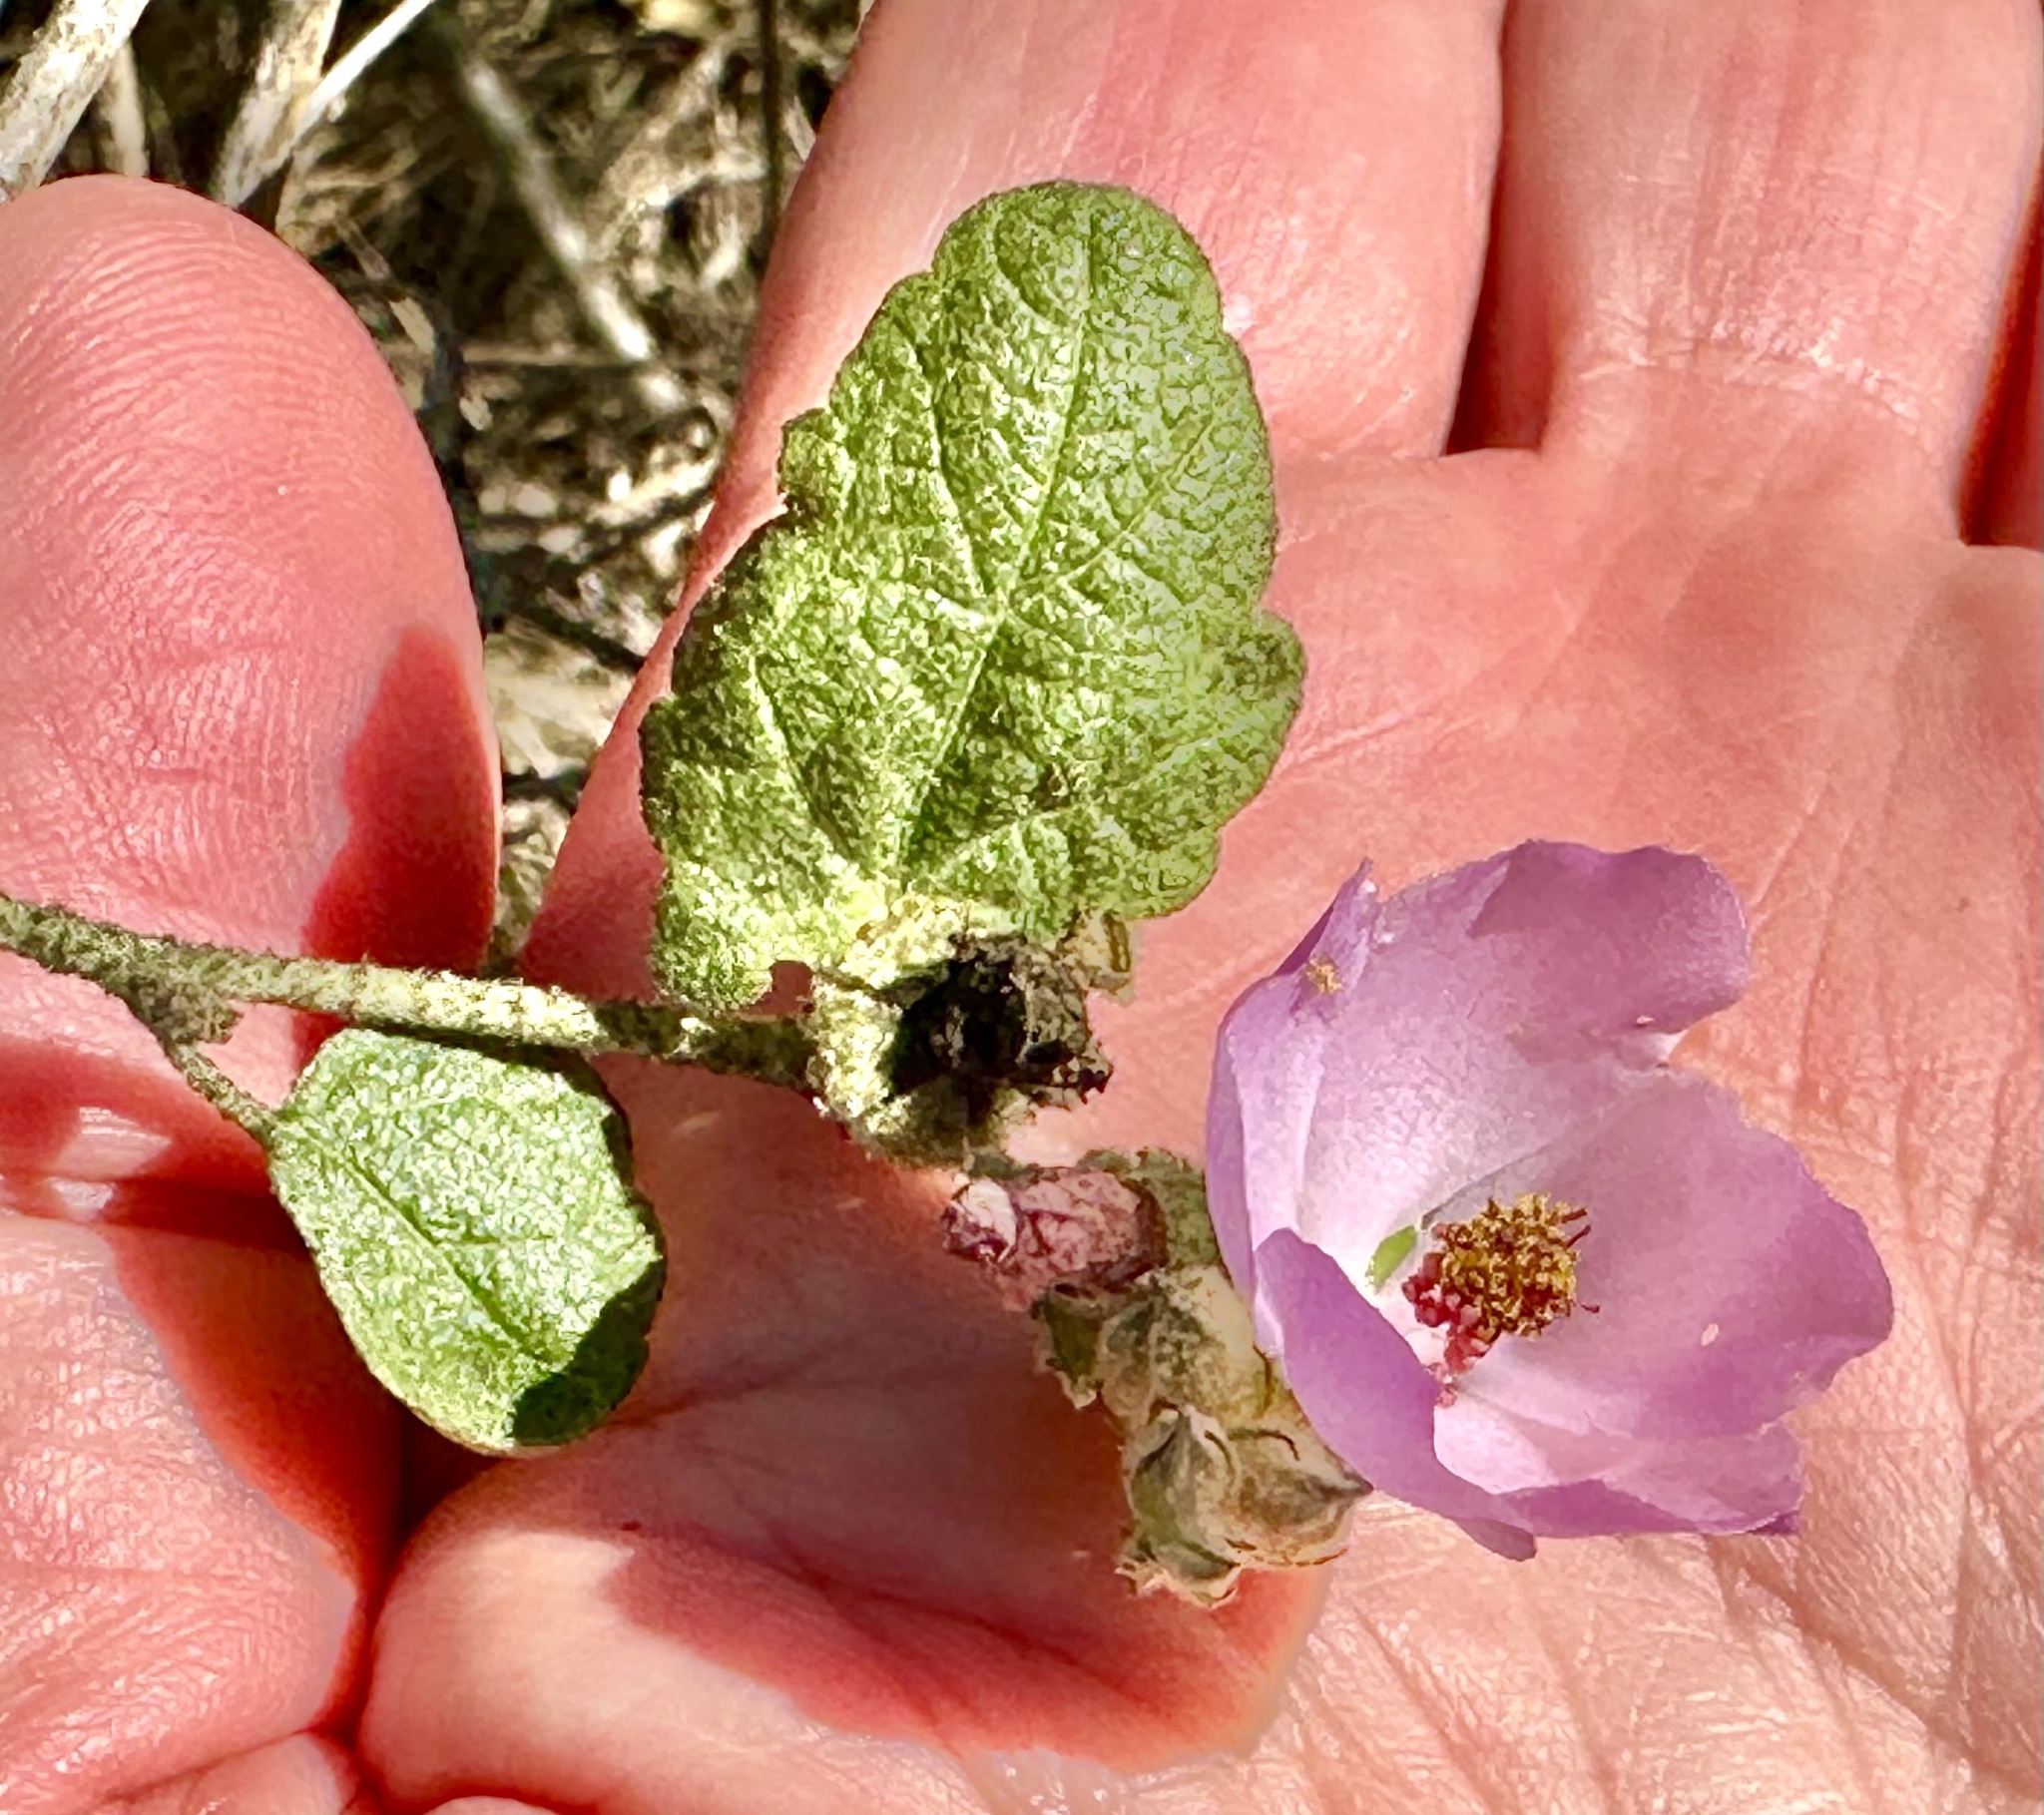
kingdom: Plantae
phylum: Tracheophyta
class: Magnoliopsida
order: Malvales
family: Malvaceae
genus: Malacothamnus
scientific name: Malacothamnus fasciculatus
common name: Sant cruz island bush-mallow
